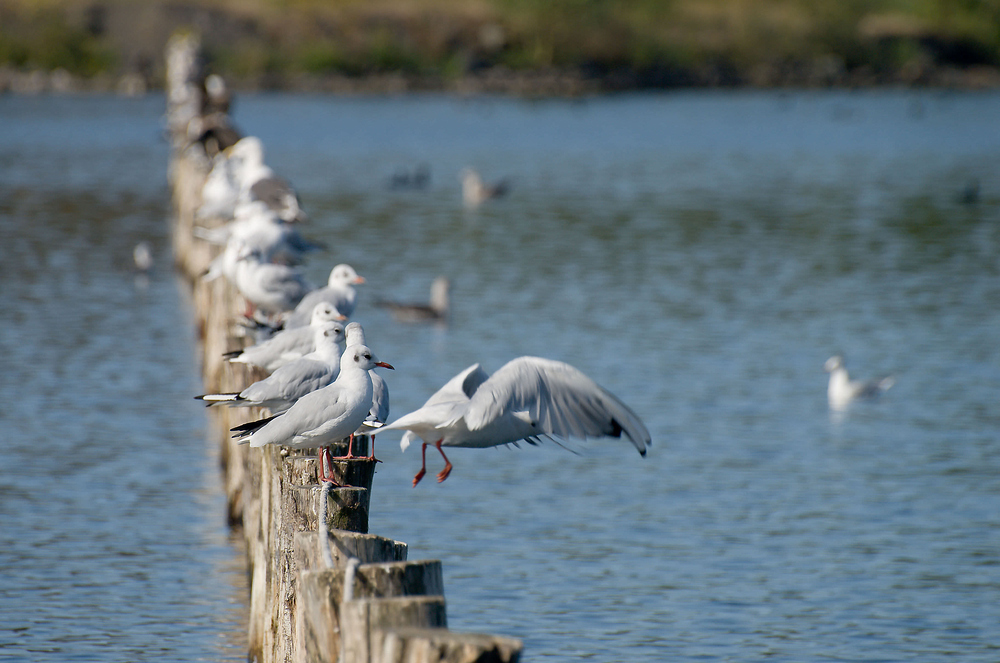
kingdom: Animalia
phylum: Chordata
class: Aves
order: Charadriiformes
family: Laridae
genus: Chroicocephalus
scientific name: Chroicocephalus ridibundus
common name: Black-headed gull
